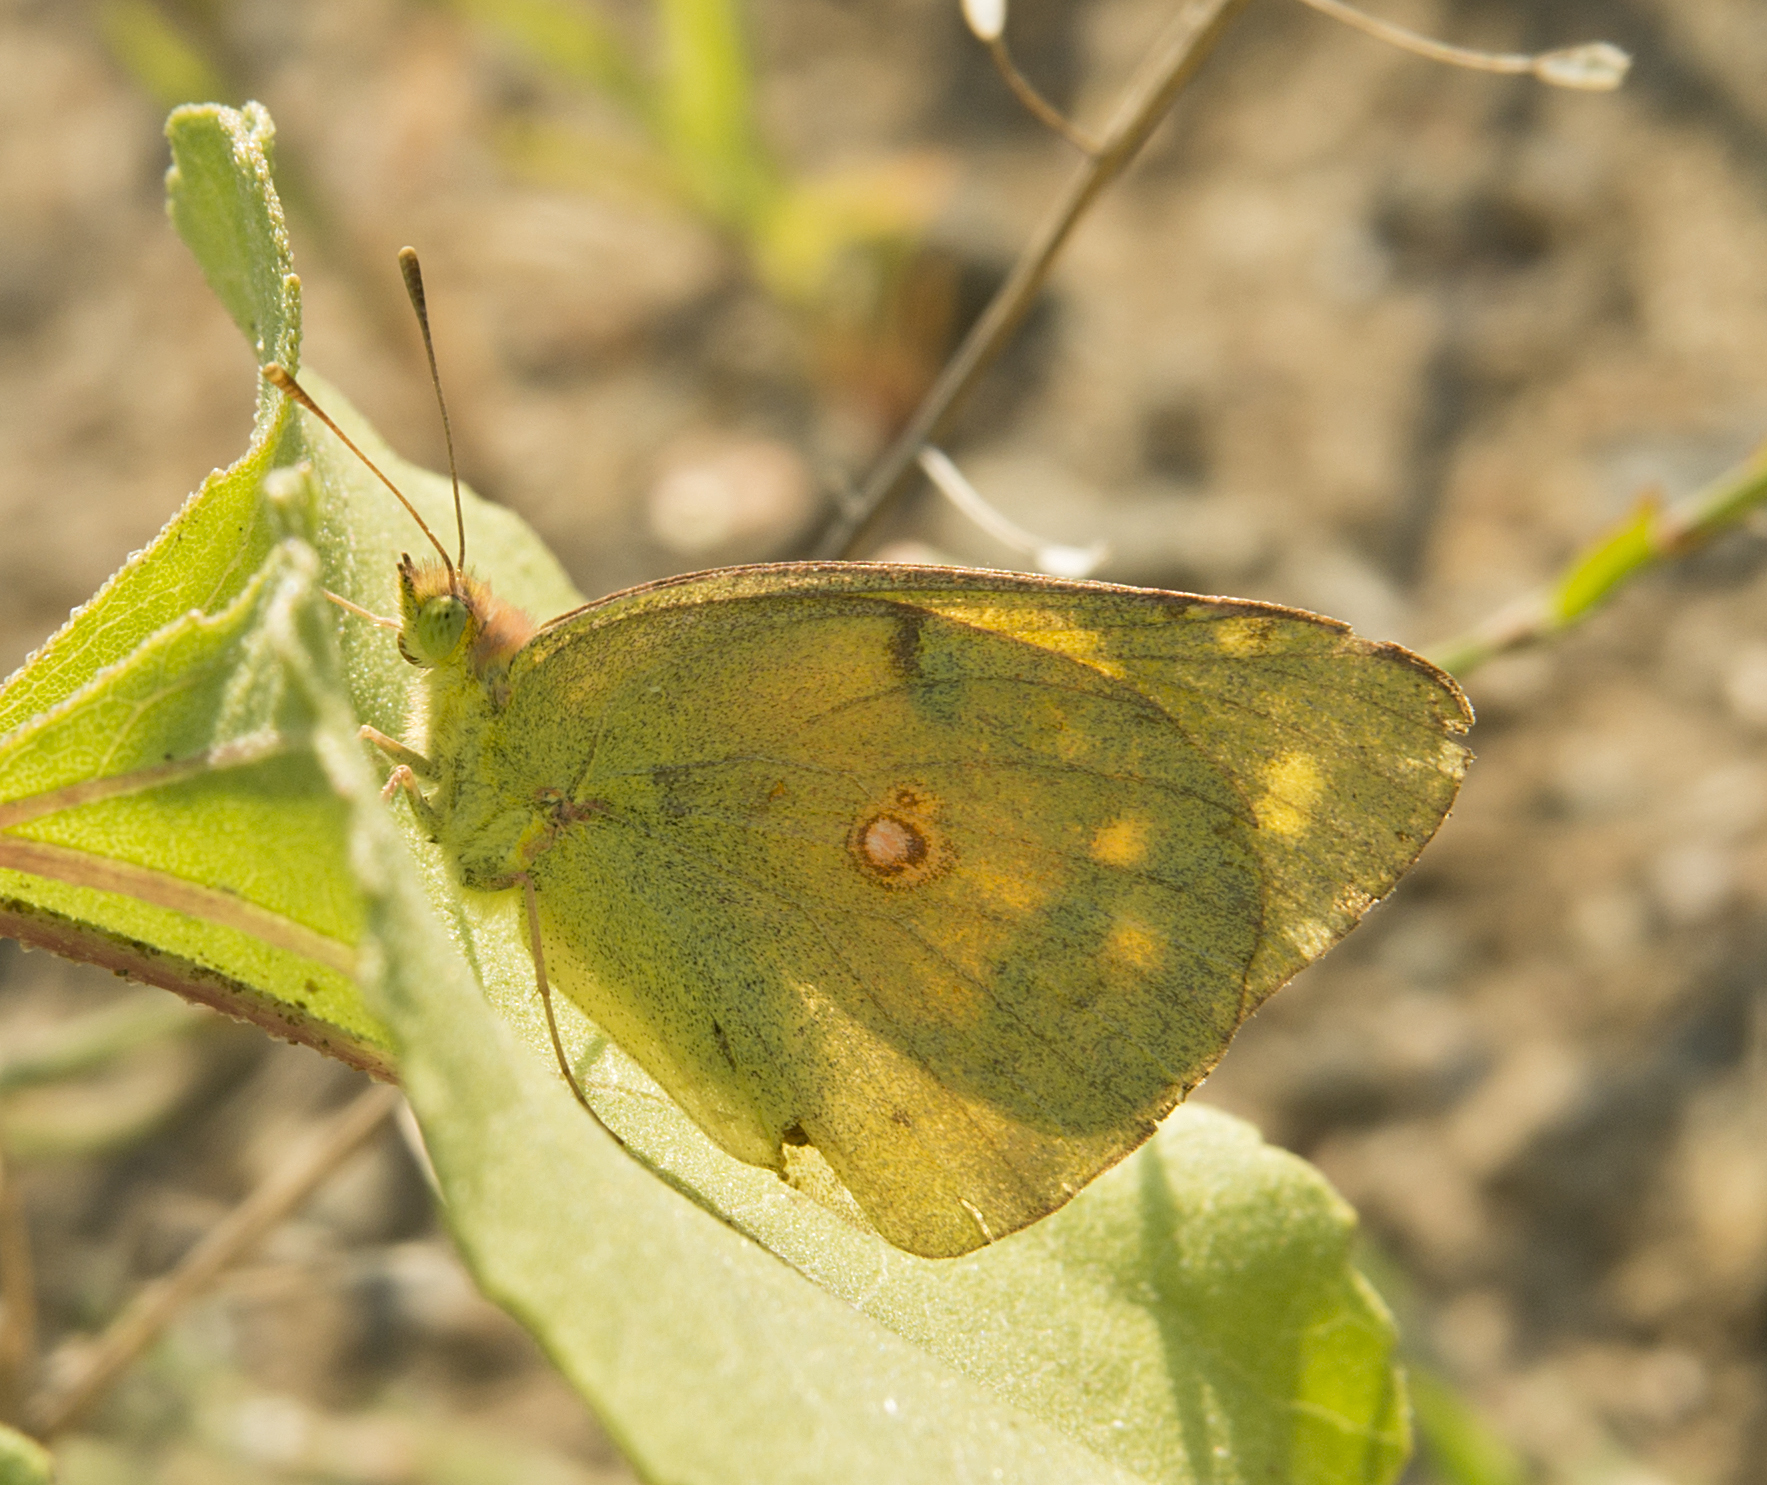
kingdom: Animalia
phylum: Arthropoda
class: Insecta
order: Lepidoptera
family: Pieridae
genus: Colias
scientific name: Colias croceus
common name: Clouded yellow
